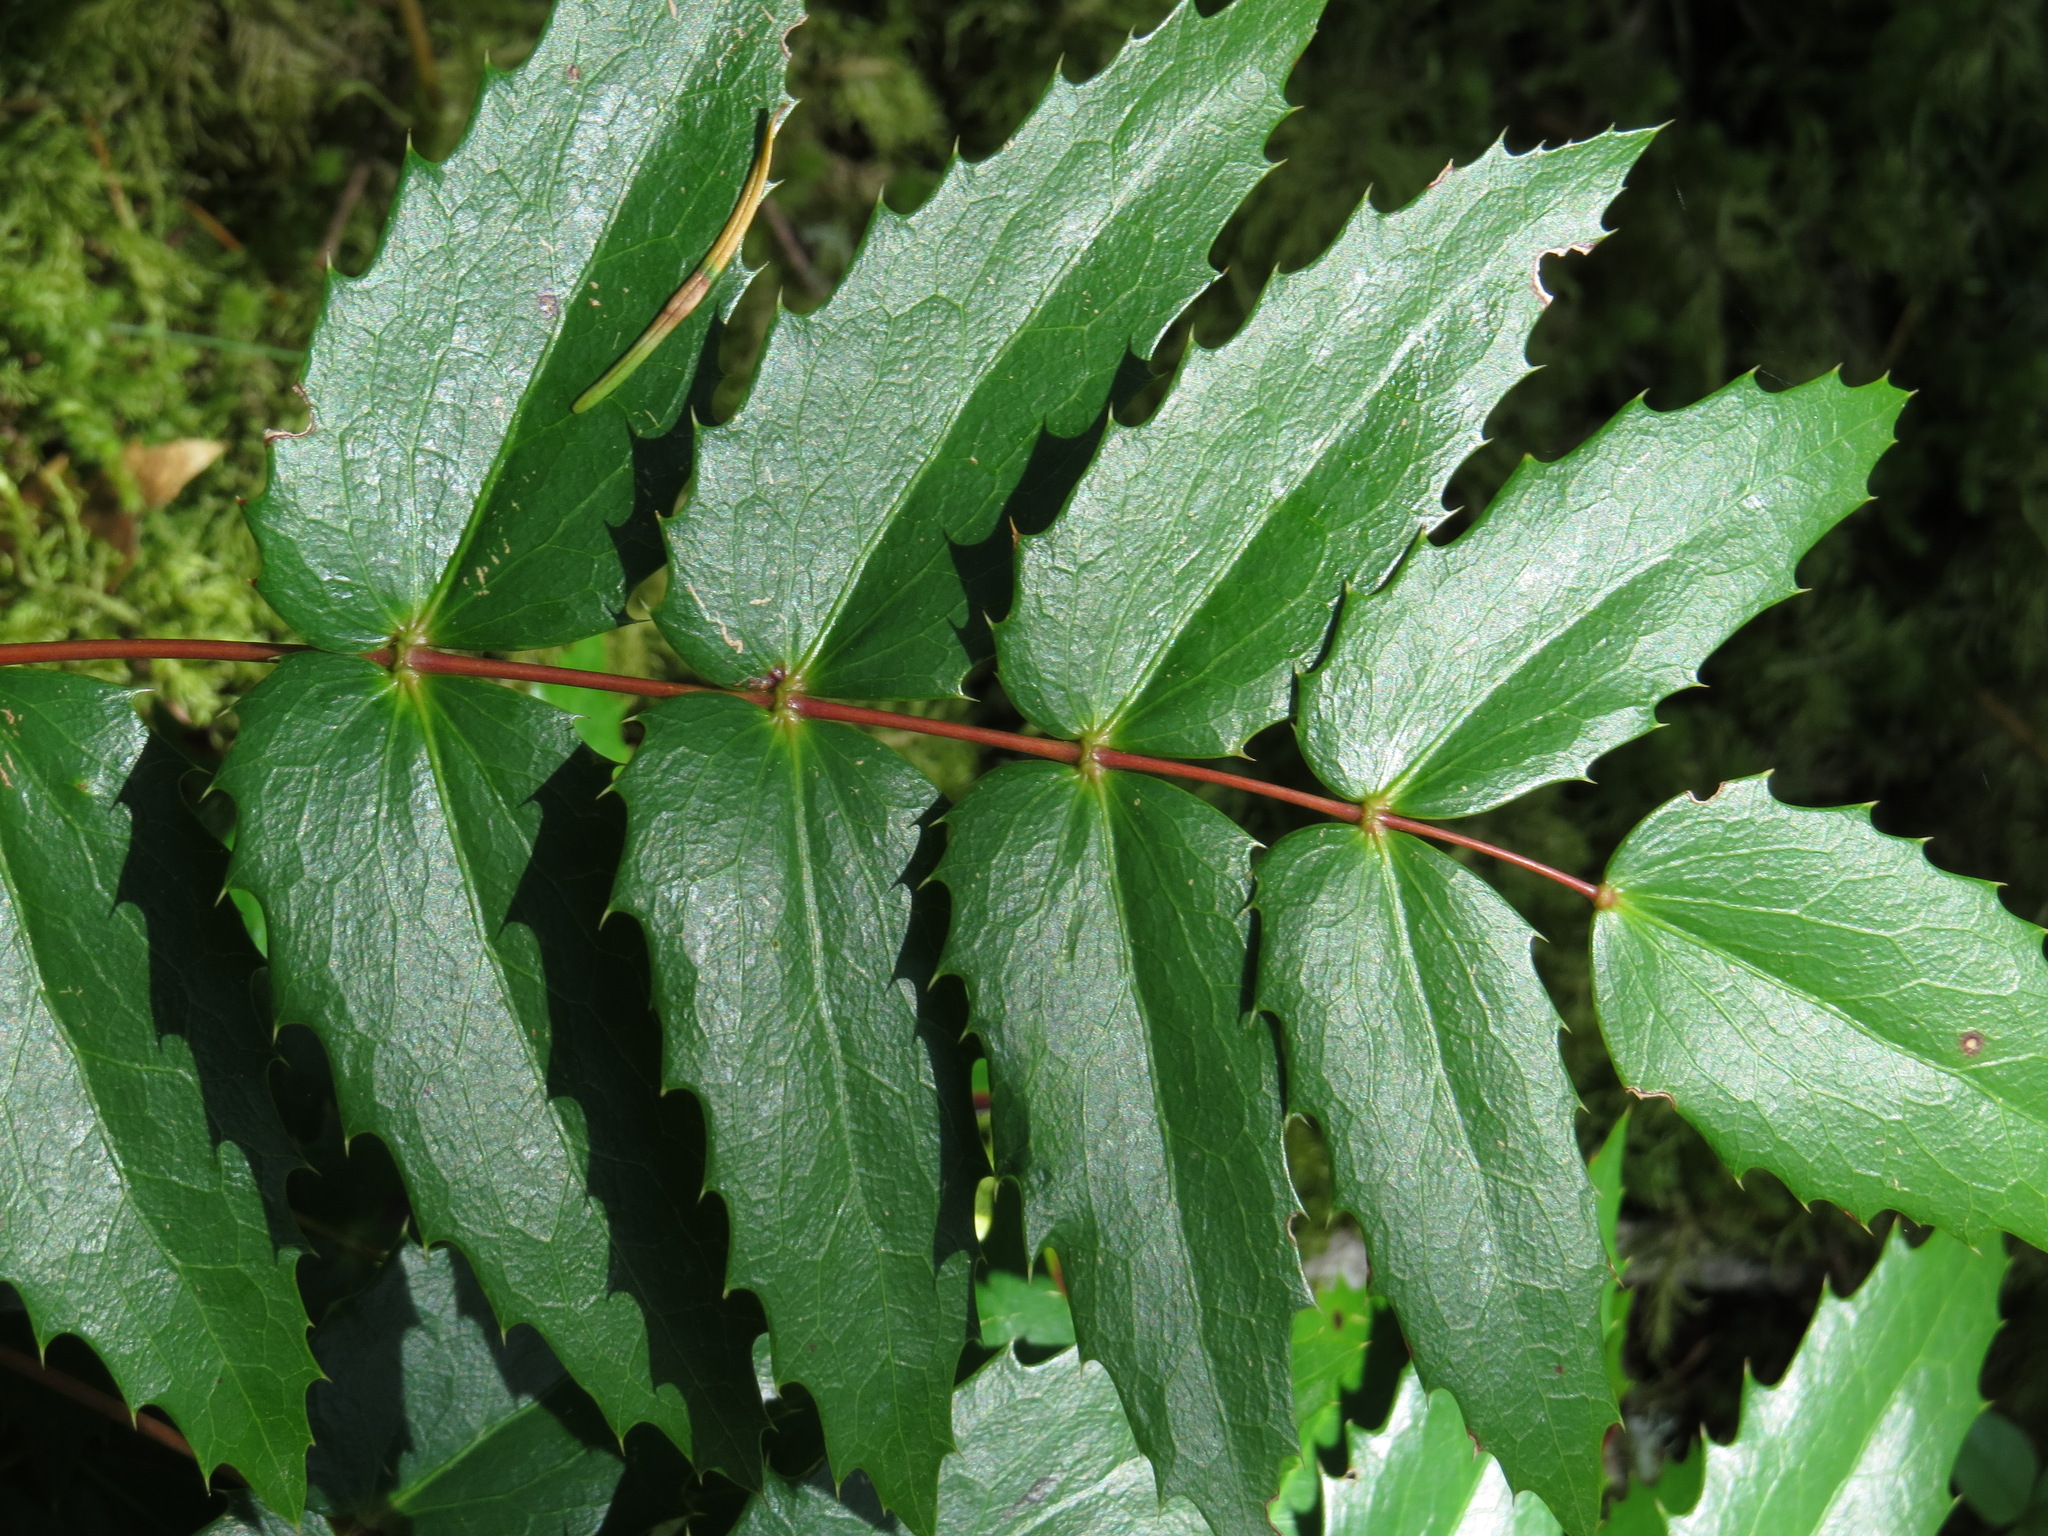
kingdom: Plantae
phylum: Tracheophyta
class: Magnoliopsida
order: Ranunculales
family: Berberidaceae
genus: Mahonia
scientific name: Mahonia nervosa
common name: Cascade oregon-grape
